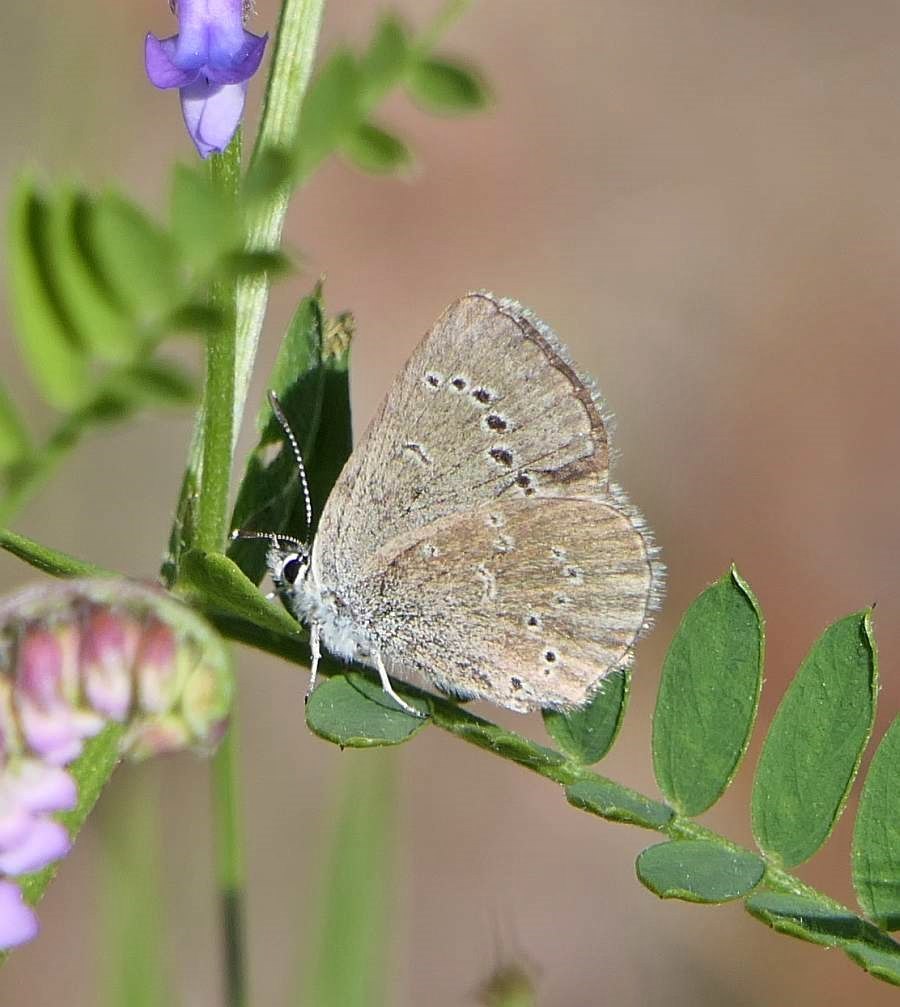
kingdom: Animalia
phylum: Arthropoda
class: Insecta
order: Lepidoptera
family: Lycaenidae
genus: Glaucopsyche
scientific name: Glaucopsyche lygdamus
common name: Silvery blue
